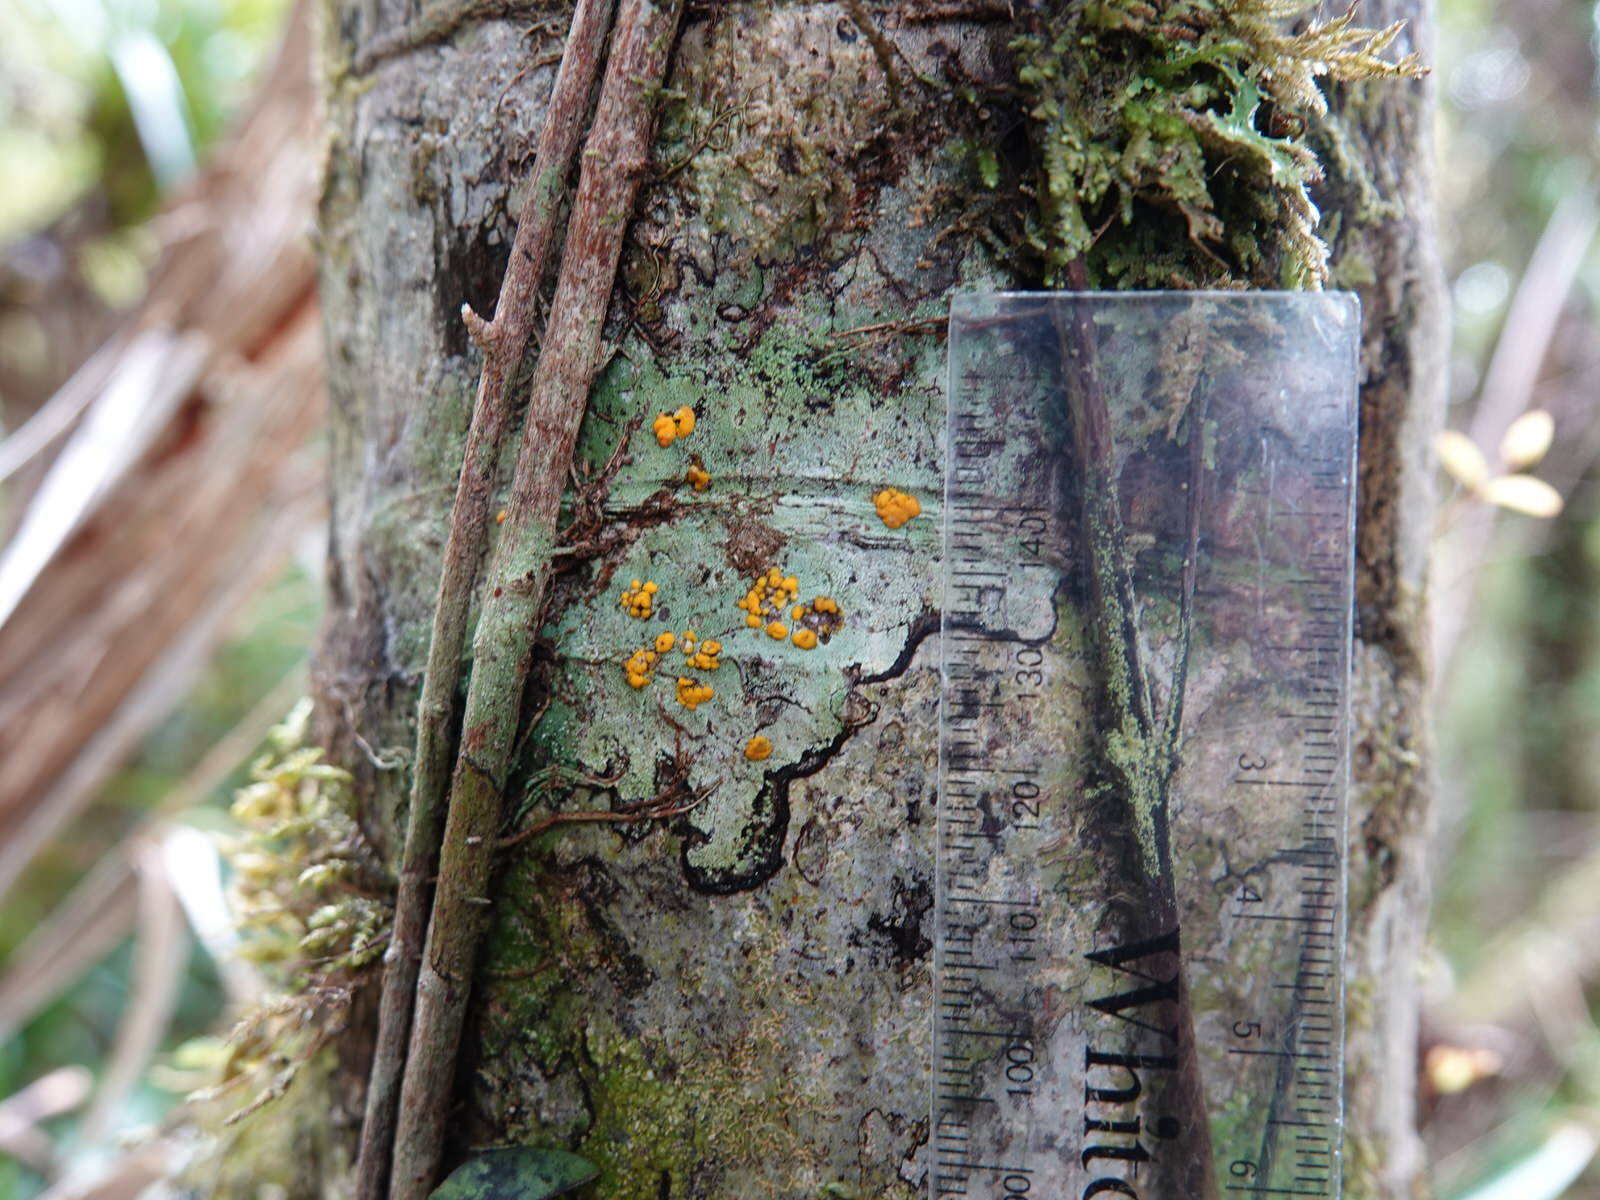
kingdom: Fungi
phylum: Ascomycota
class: Lecanoromycetes
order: Lecanorales
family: Ramalinaceae
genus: Stirtoniella
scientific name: Stirtoniella kelica
